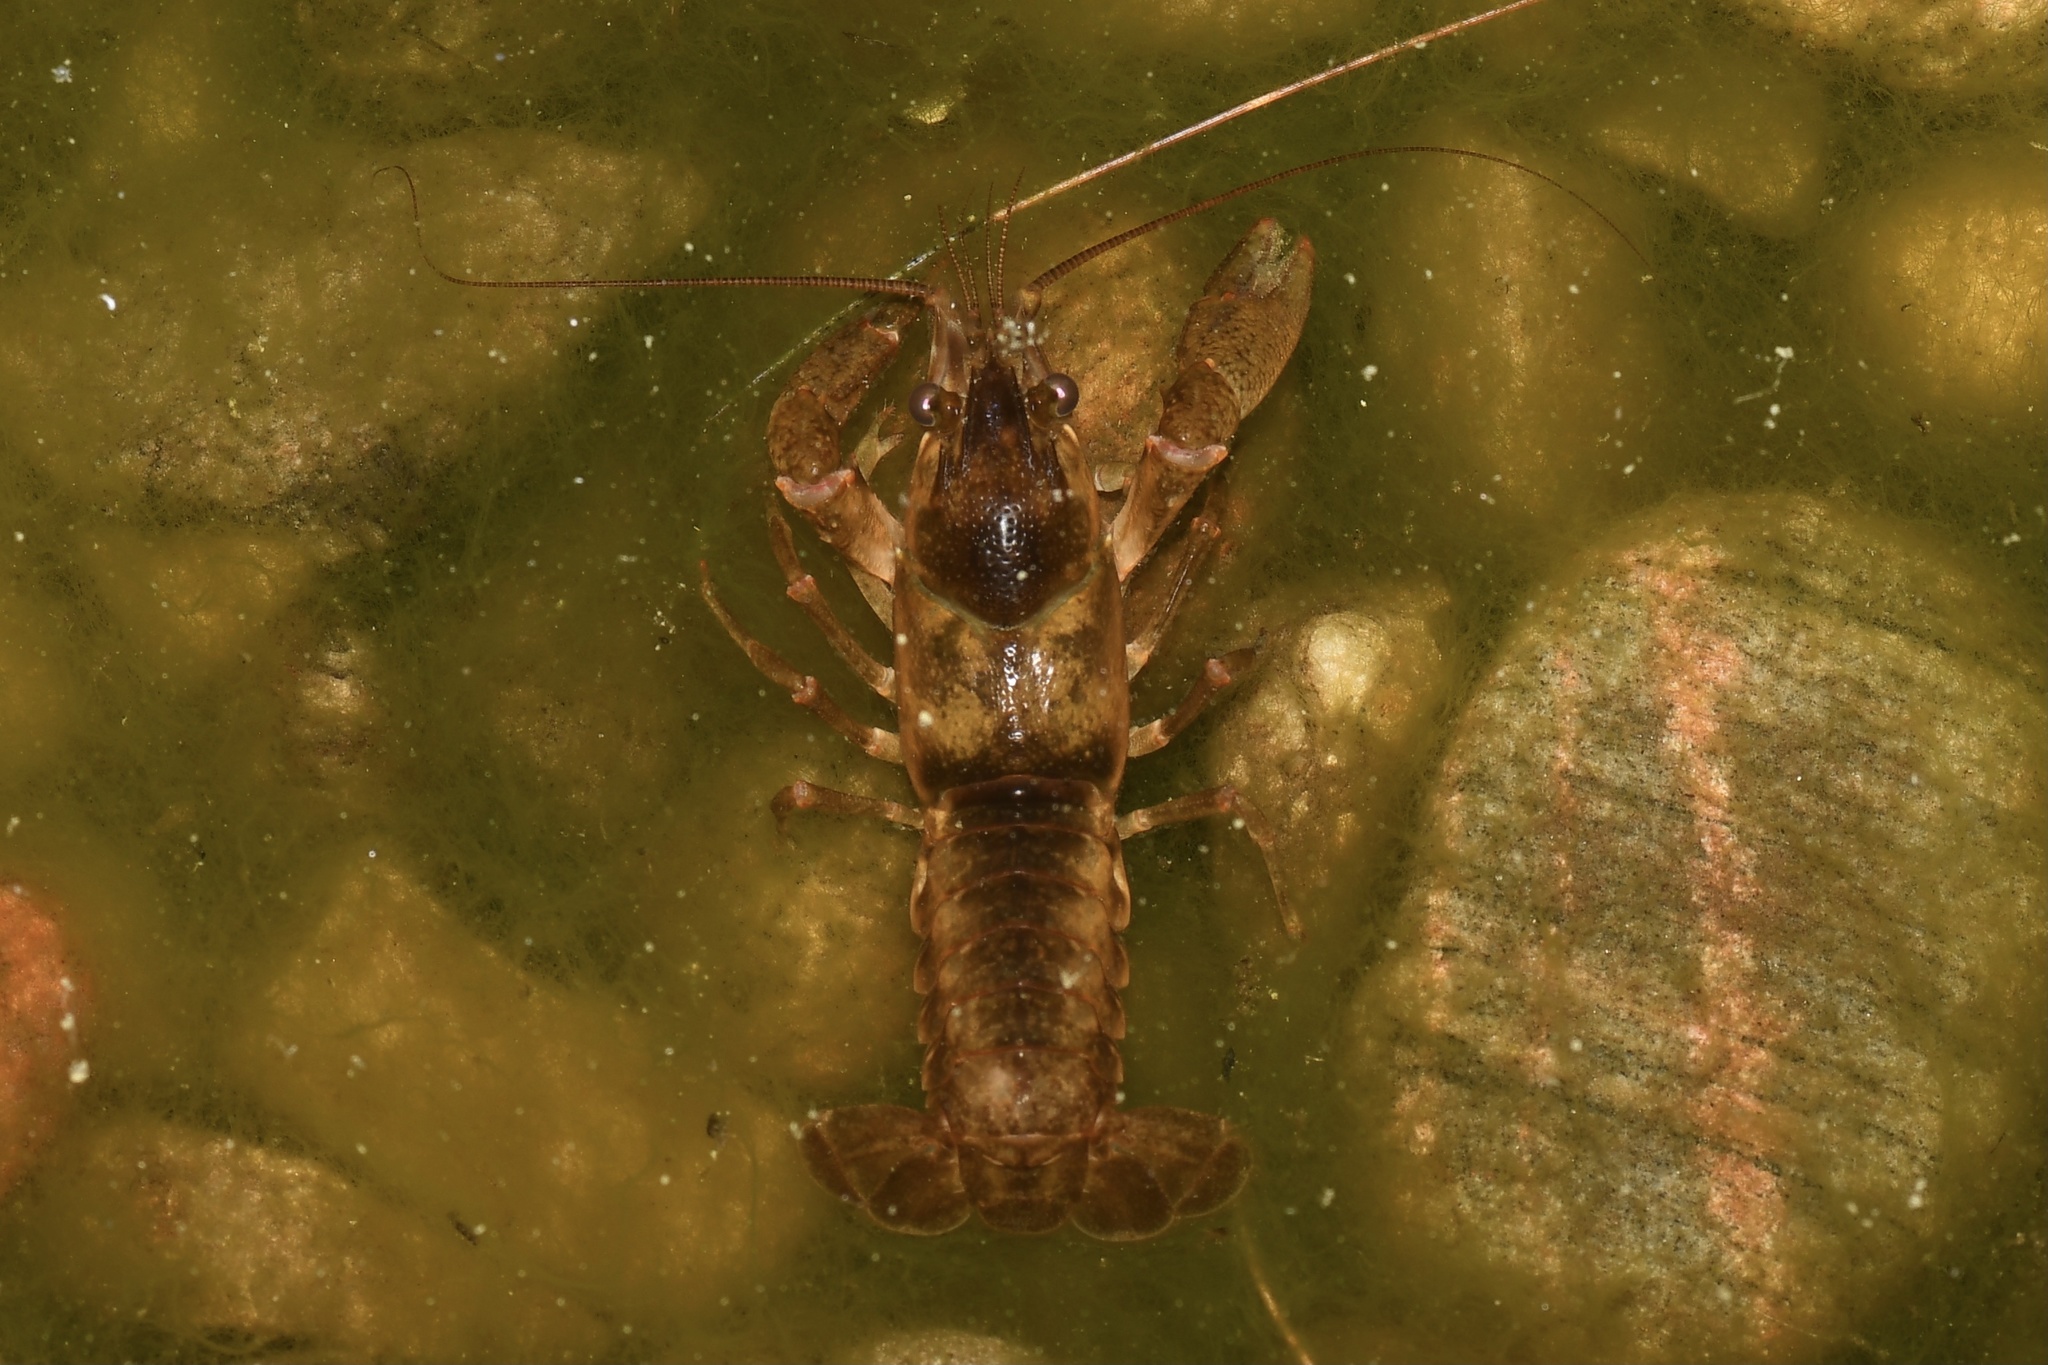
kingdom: Animalia
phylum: Arthropoda
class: Malacostraca
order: Decapoda
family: Cambaridae
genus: Faxonius
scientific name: Faxonius propinquus
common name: Northern clearwater crayfish
